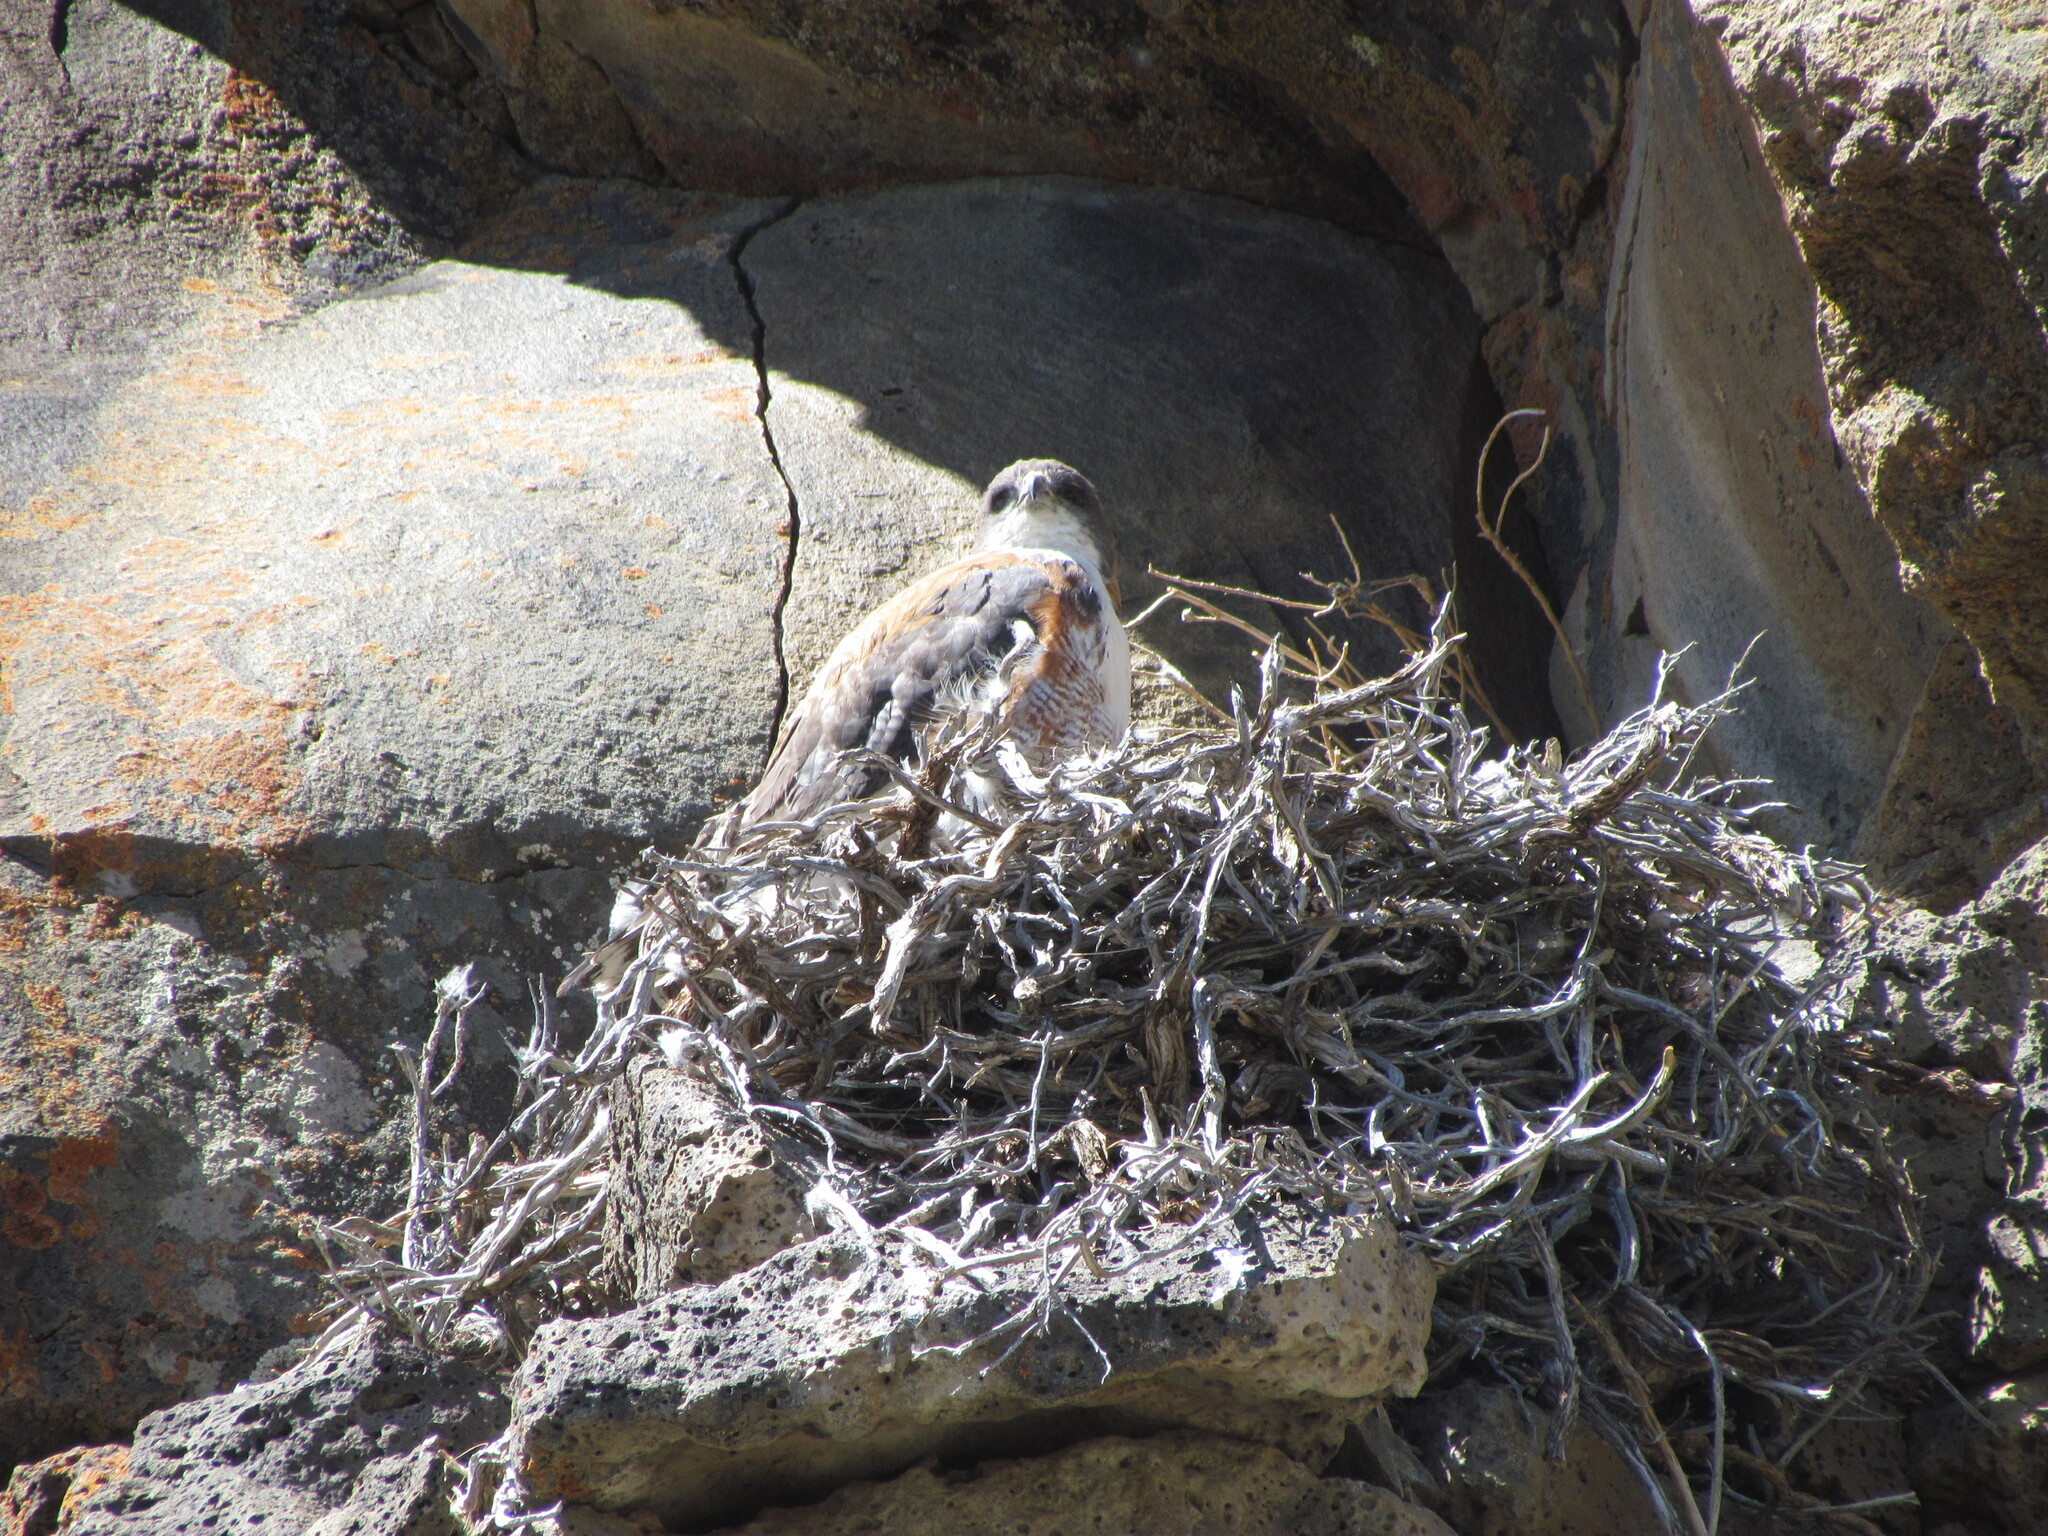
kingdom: Animalia
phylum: Chordata
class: Aves
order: Accipitriformes
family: Accipitridae
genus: Buteo
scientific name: Buteo polyosoma
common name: Variable hawk
